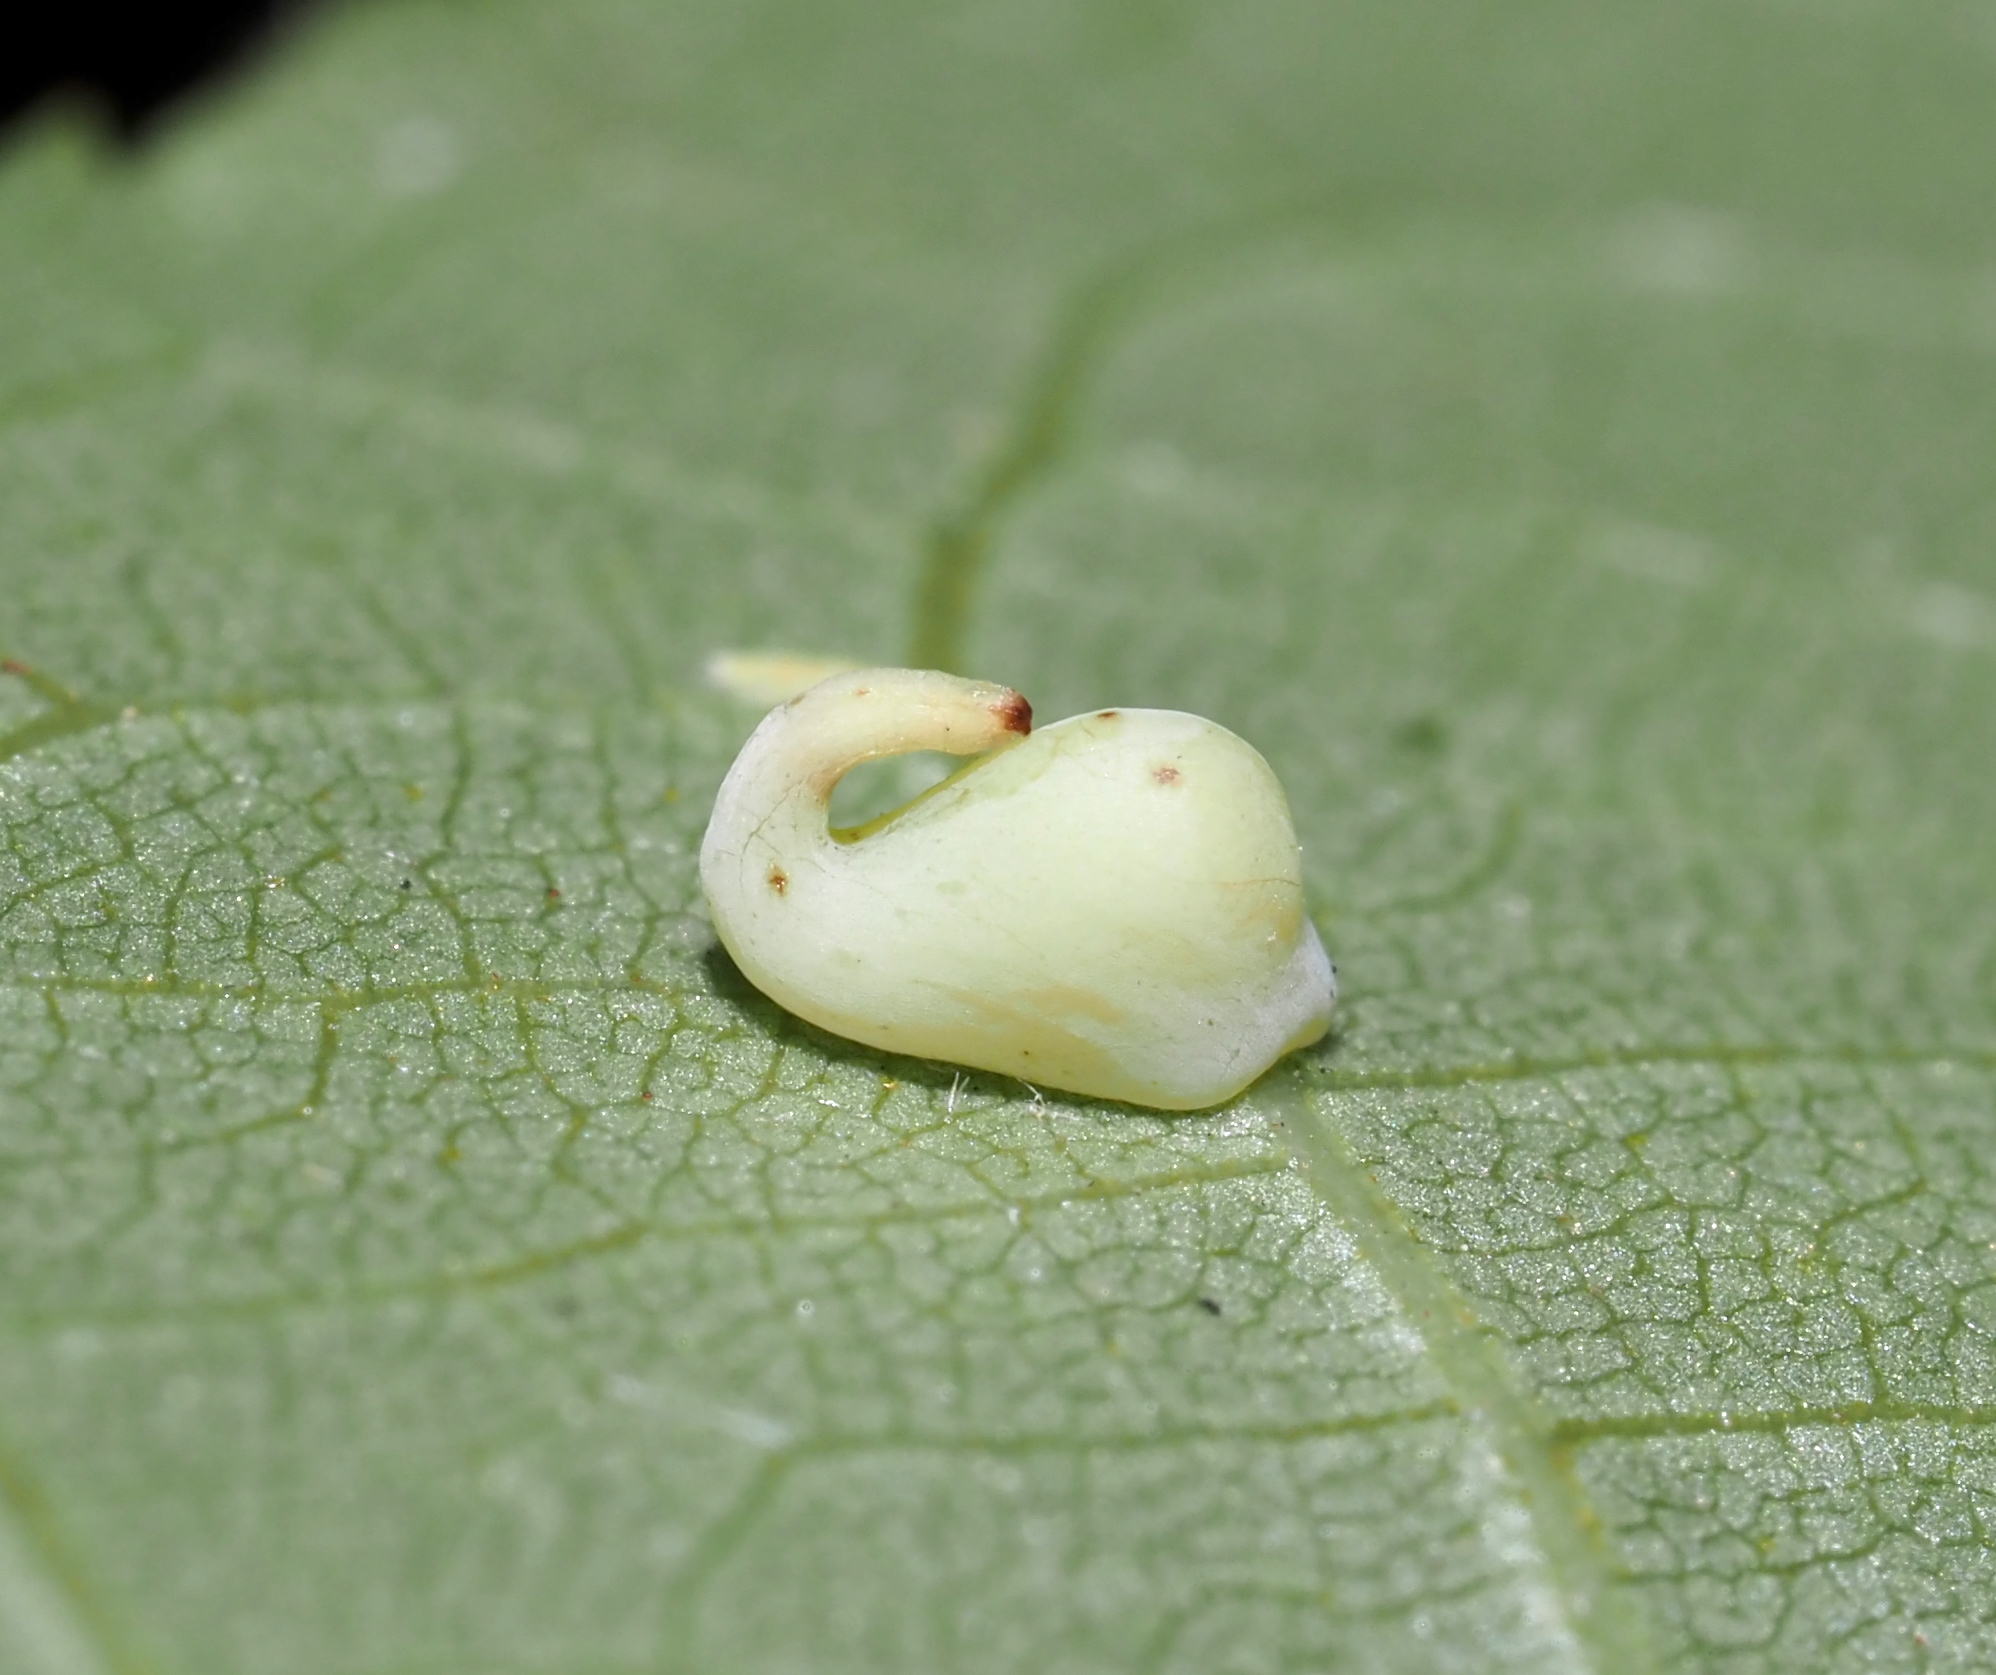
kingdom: Animalia
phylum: Arthropoda
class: Insecta
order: Diptera
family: Cecidomyiidae
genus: Caryomyia
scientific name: Caryomyia recurvata
